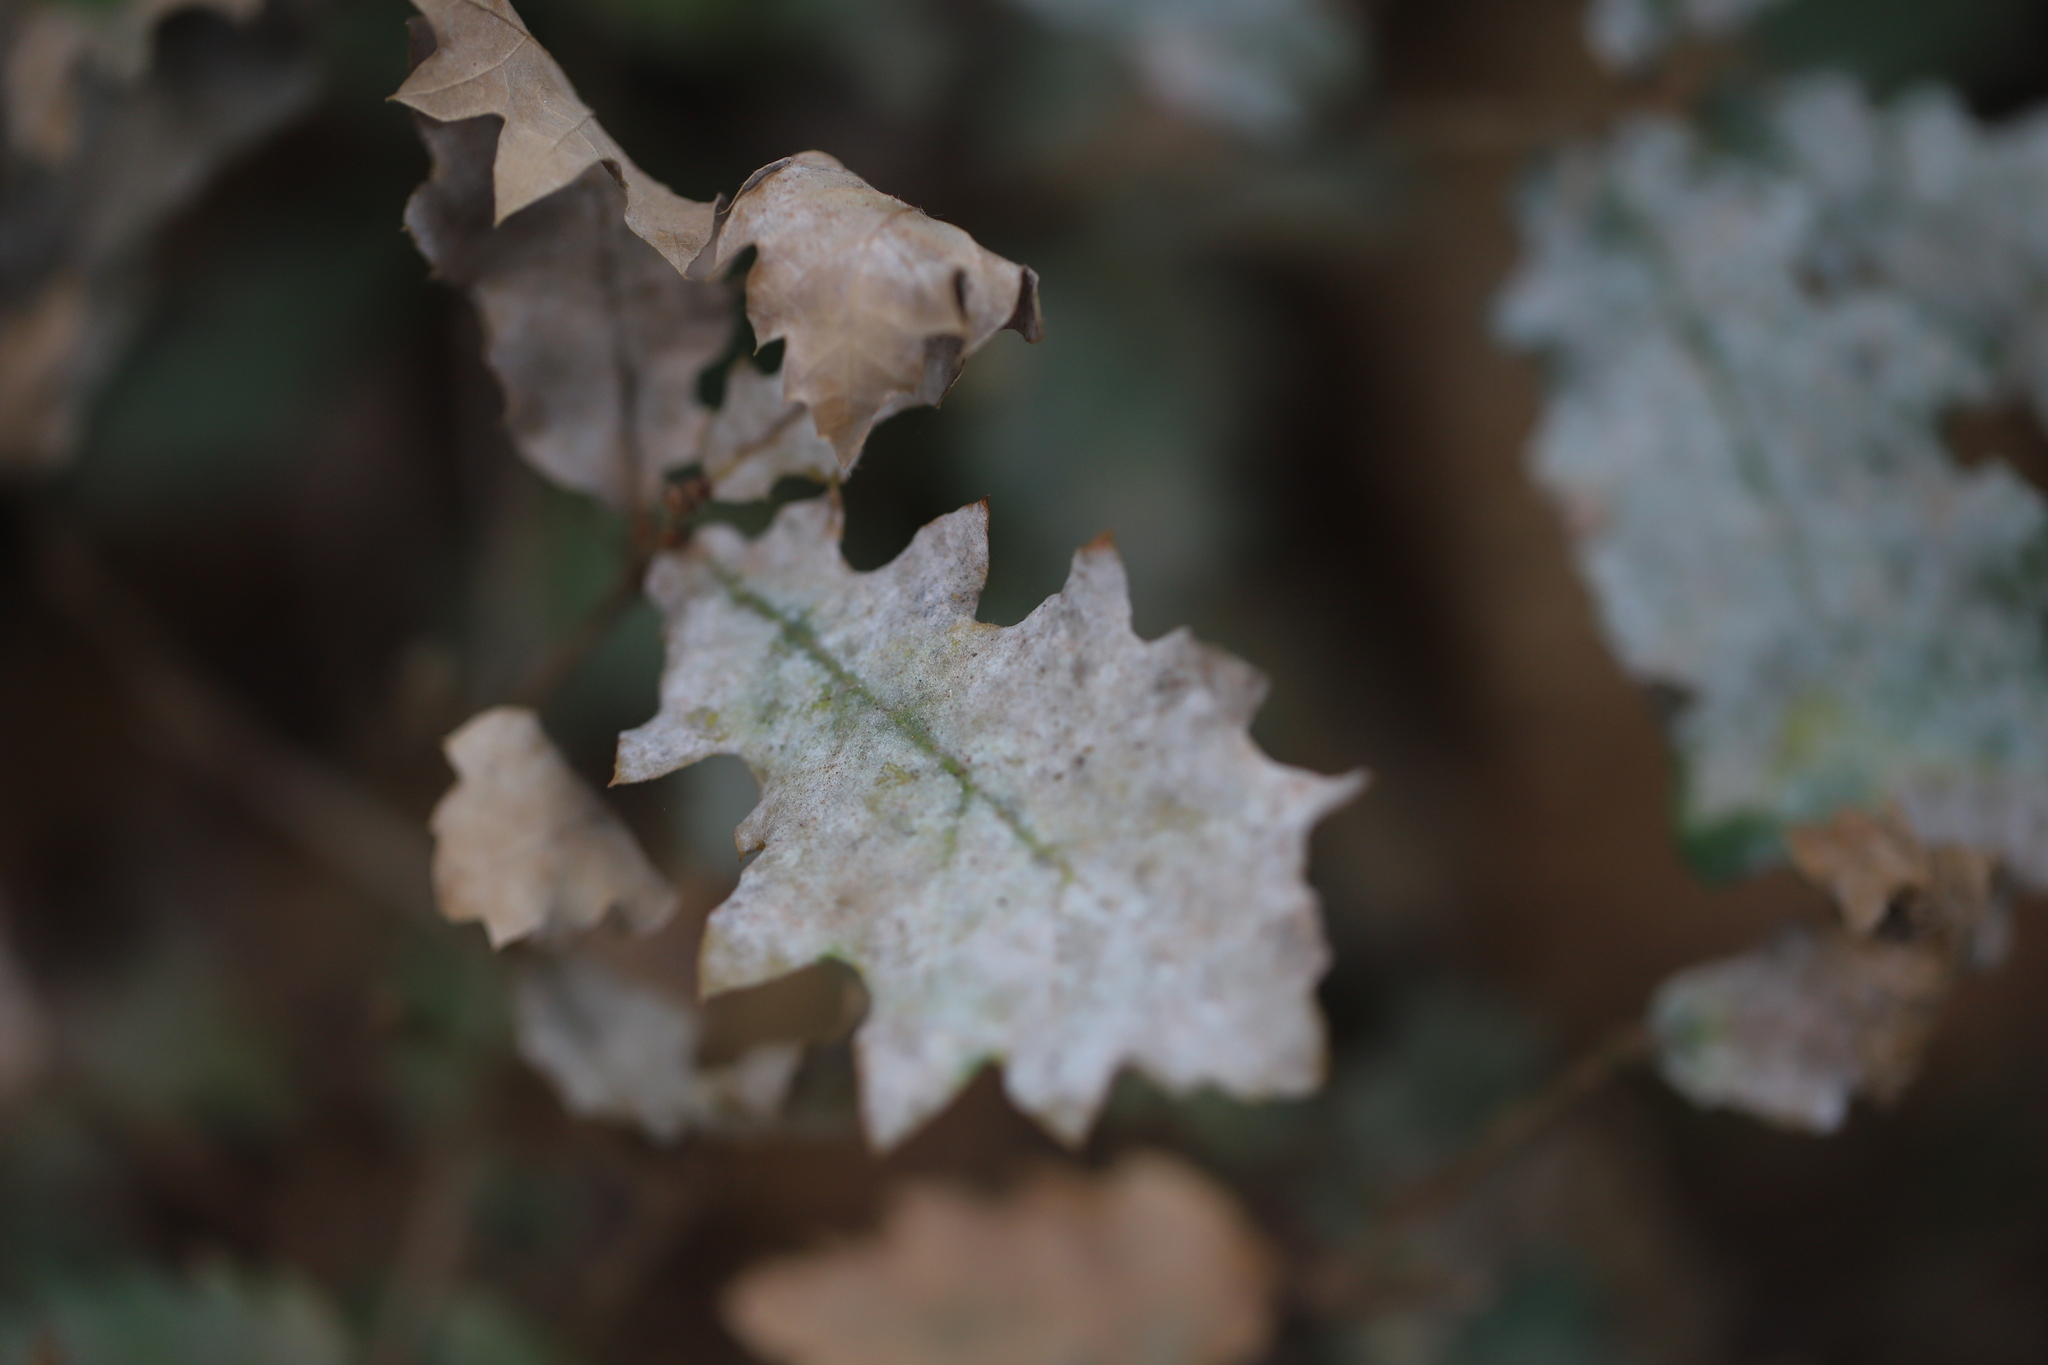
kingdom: Fungi
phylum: Ascomycota
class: Leotiomycetes
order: Helotiales
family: Erysiphaceae
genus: Erysiphe
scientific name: Erysiphe alphitoides
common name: Oak mildew
